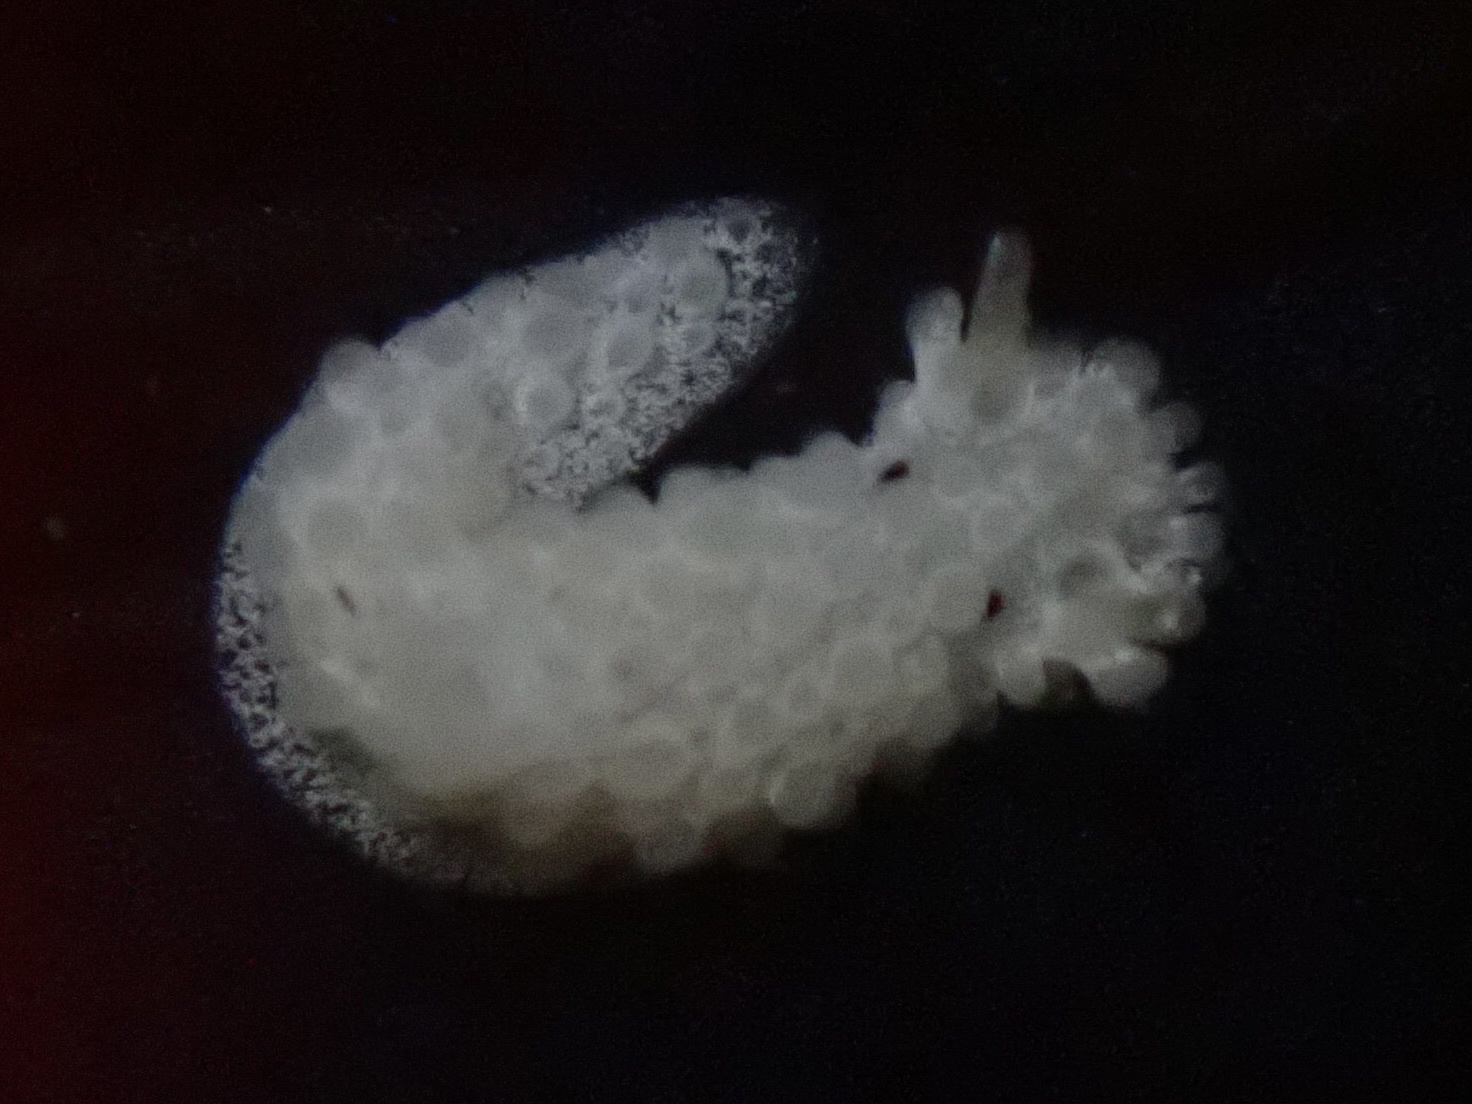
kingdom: Animalia
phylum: Mollusca
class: Gastropoda
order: Nudibranchia
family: Aegiridae
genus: Aegires
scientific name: Aegires albopunctatus
